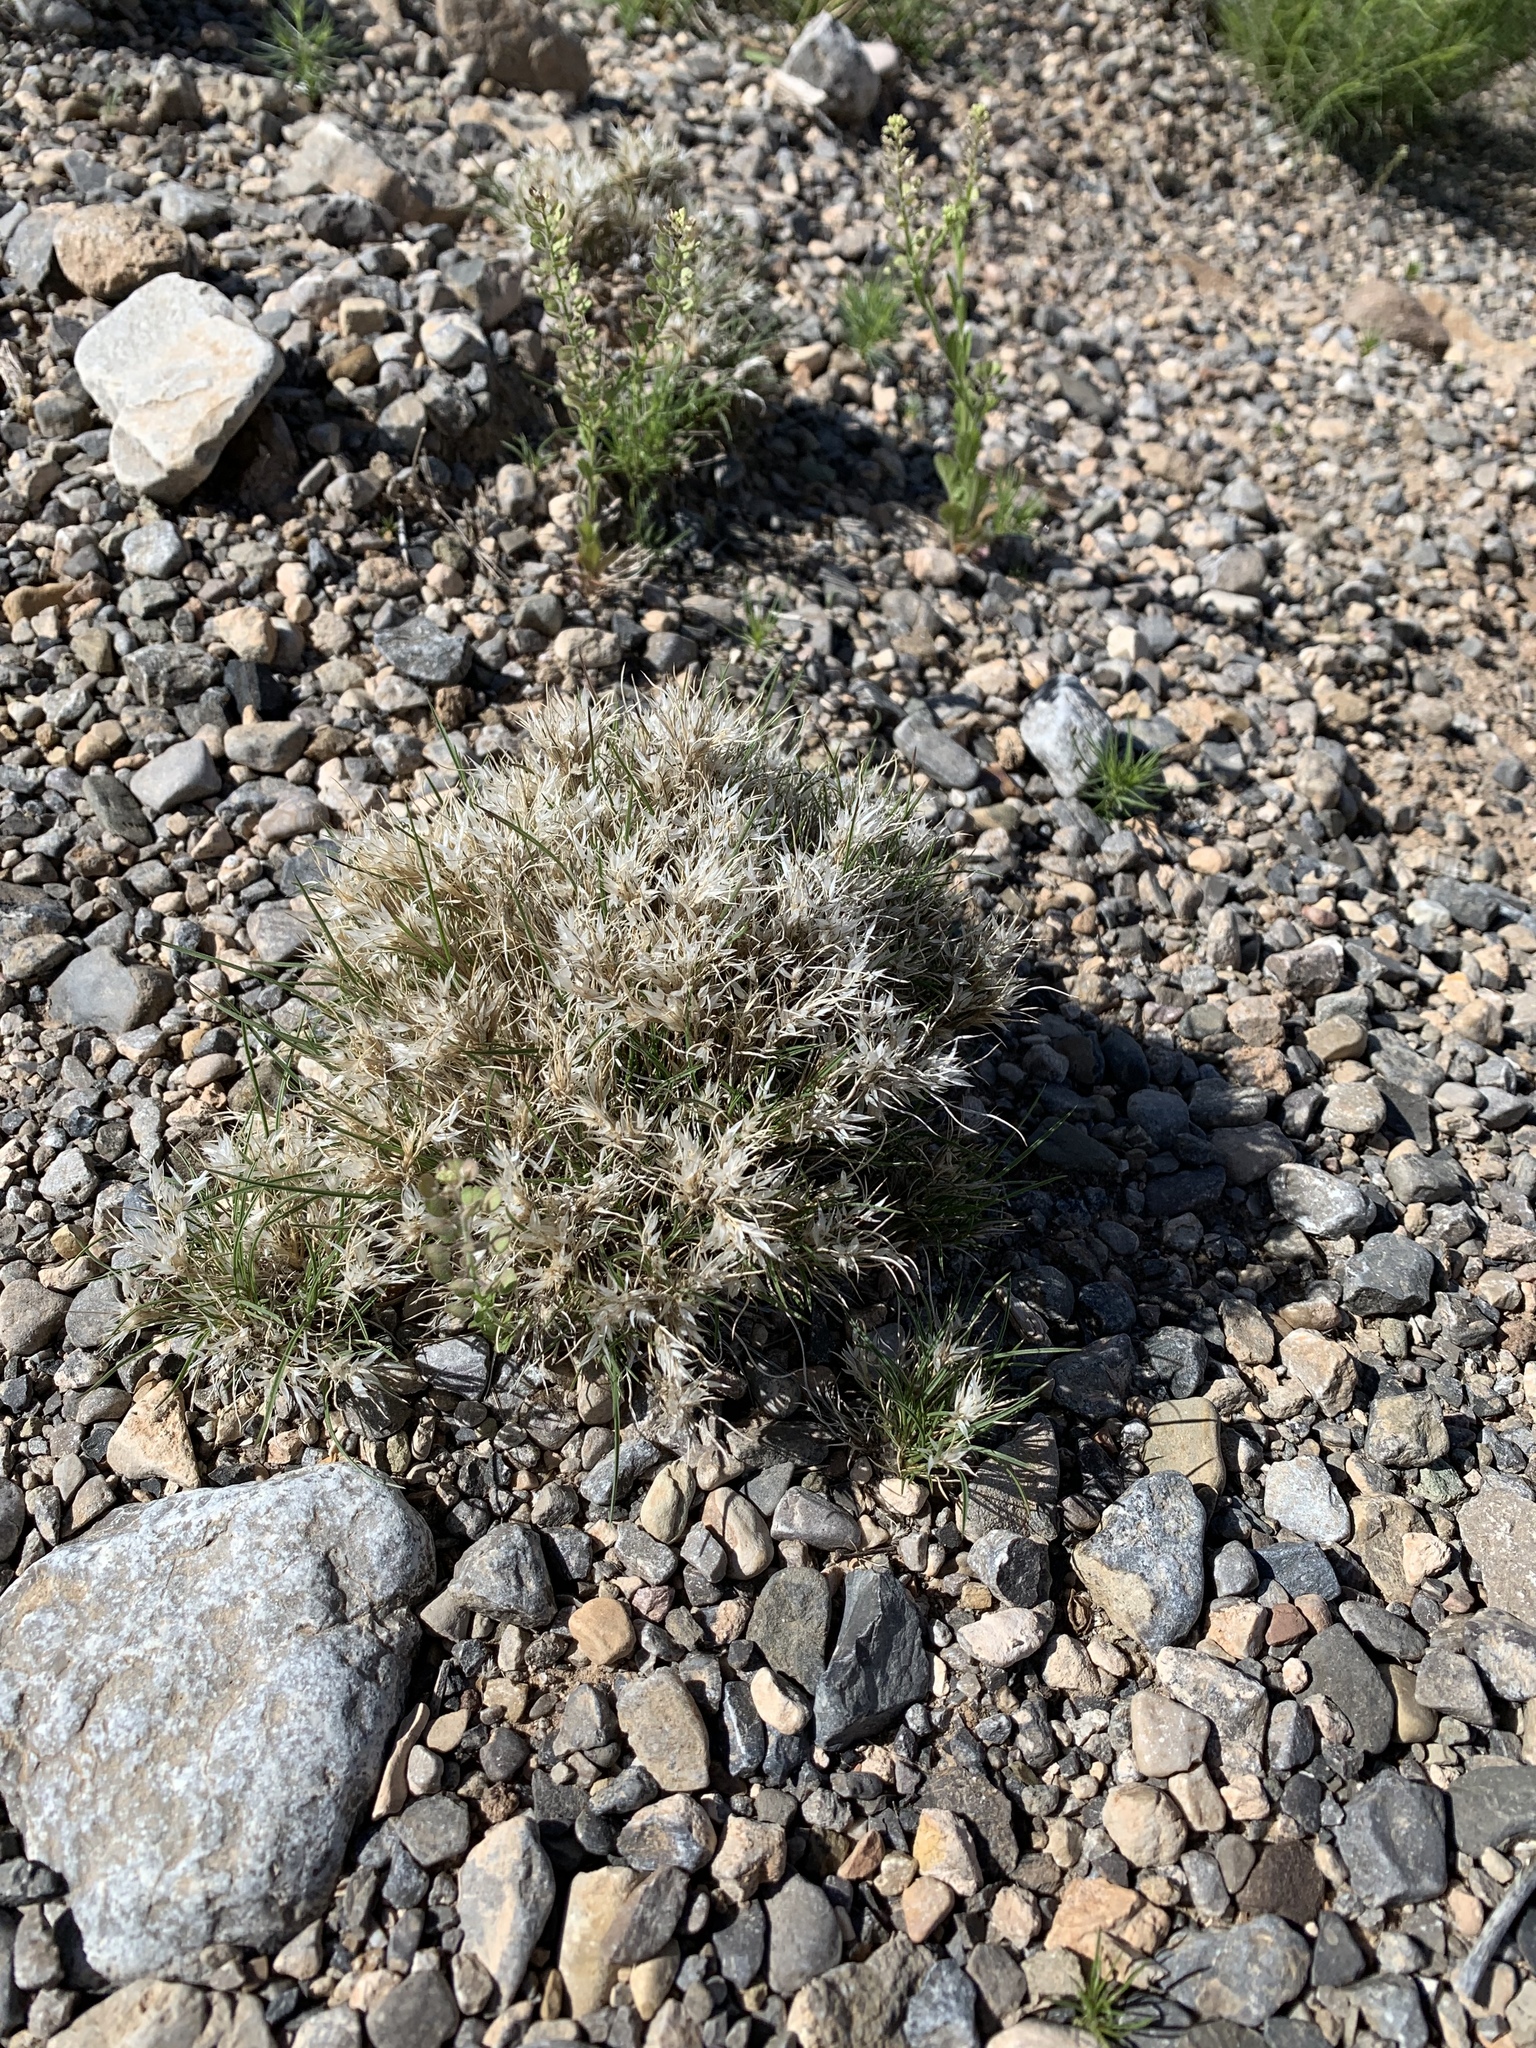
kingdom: Plantae
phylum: Tracheophyta
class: Liliopsida
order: Poales
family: Poaceae
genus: Dasyochloa
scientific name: Dasyochloa pulchella
